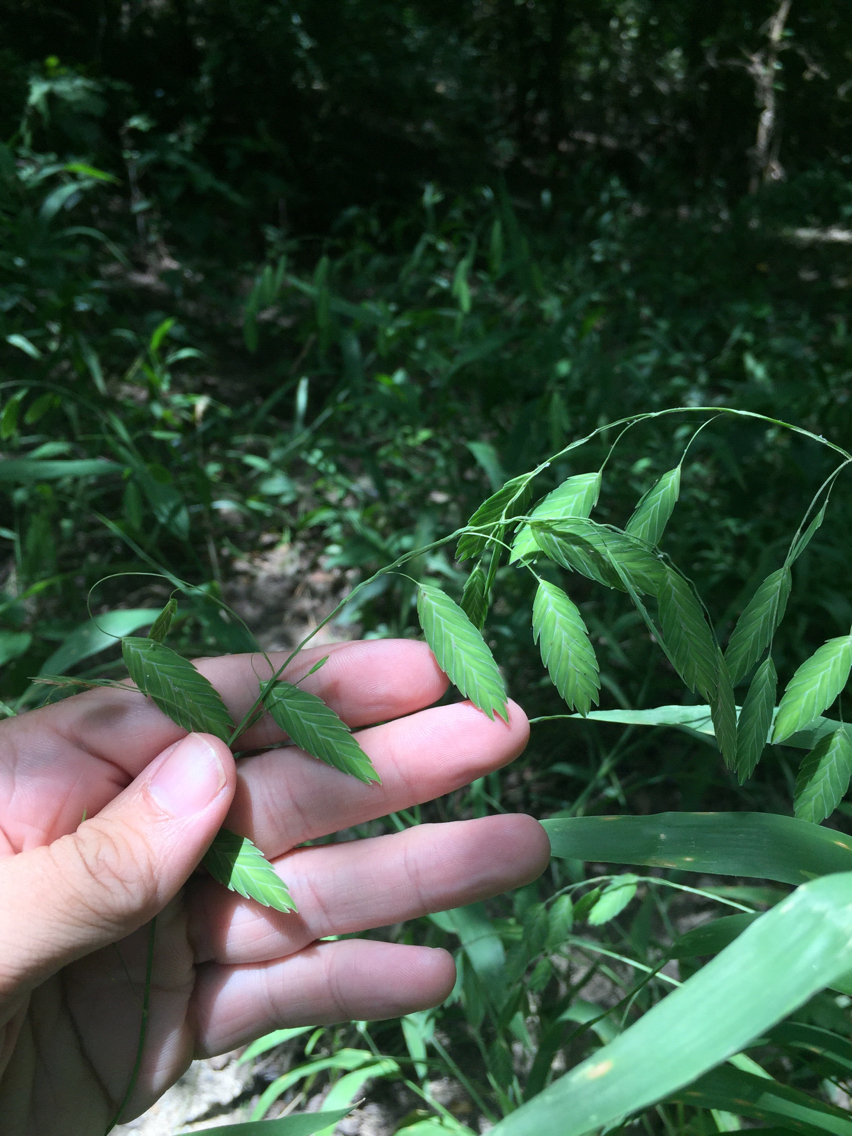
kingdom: Plantae
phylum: Tracheophyta
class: Liliopsida
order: Poales
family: Poaceae
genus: Chasmanthium
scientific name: Chasmanthium latifolium
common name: Broad-leaved chasmanthium
